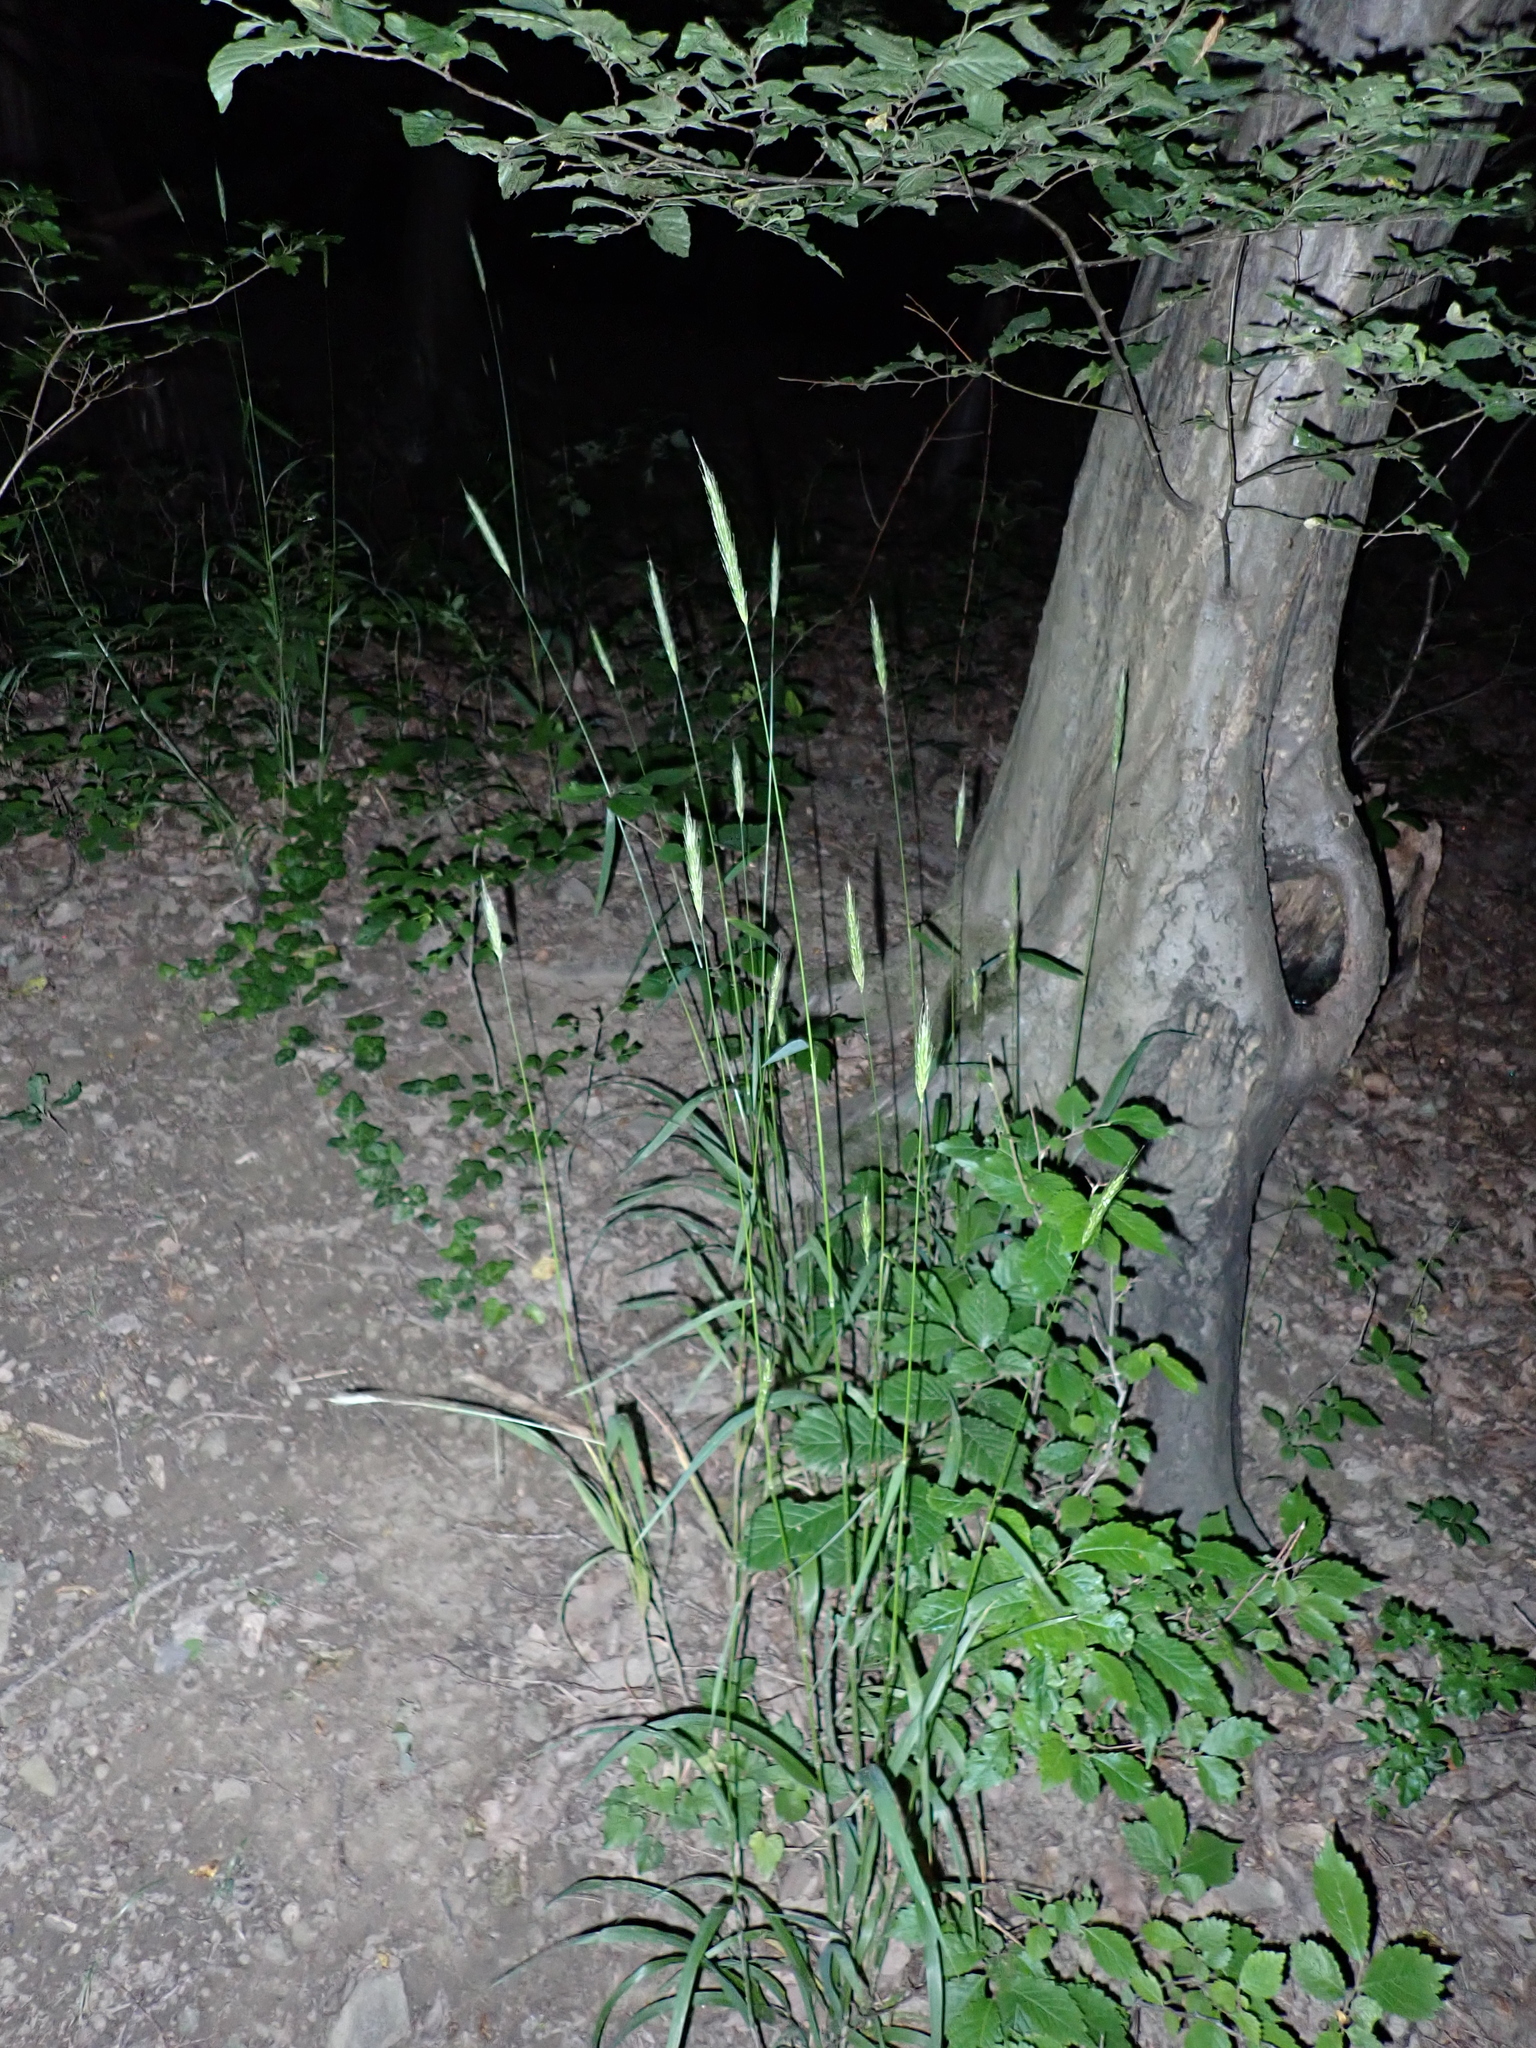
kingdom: Plantae
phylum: Tracheophyta
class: Liliopsida
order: Poales
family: Poaceae
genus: Hordelymus
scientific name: Hordelymus europaeus
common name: Wood-barley
